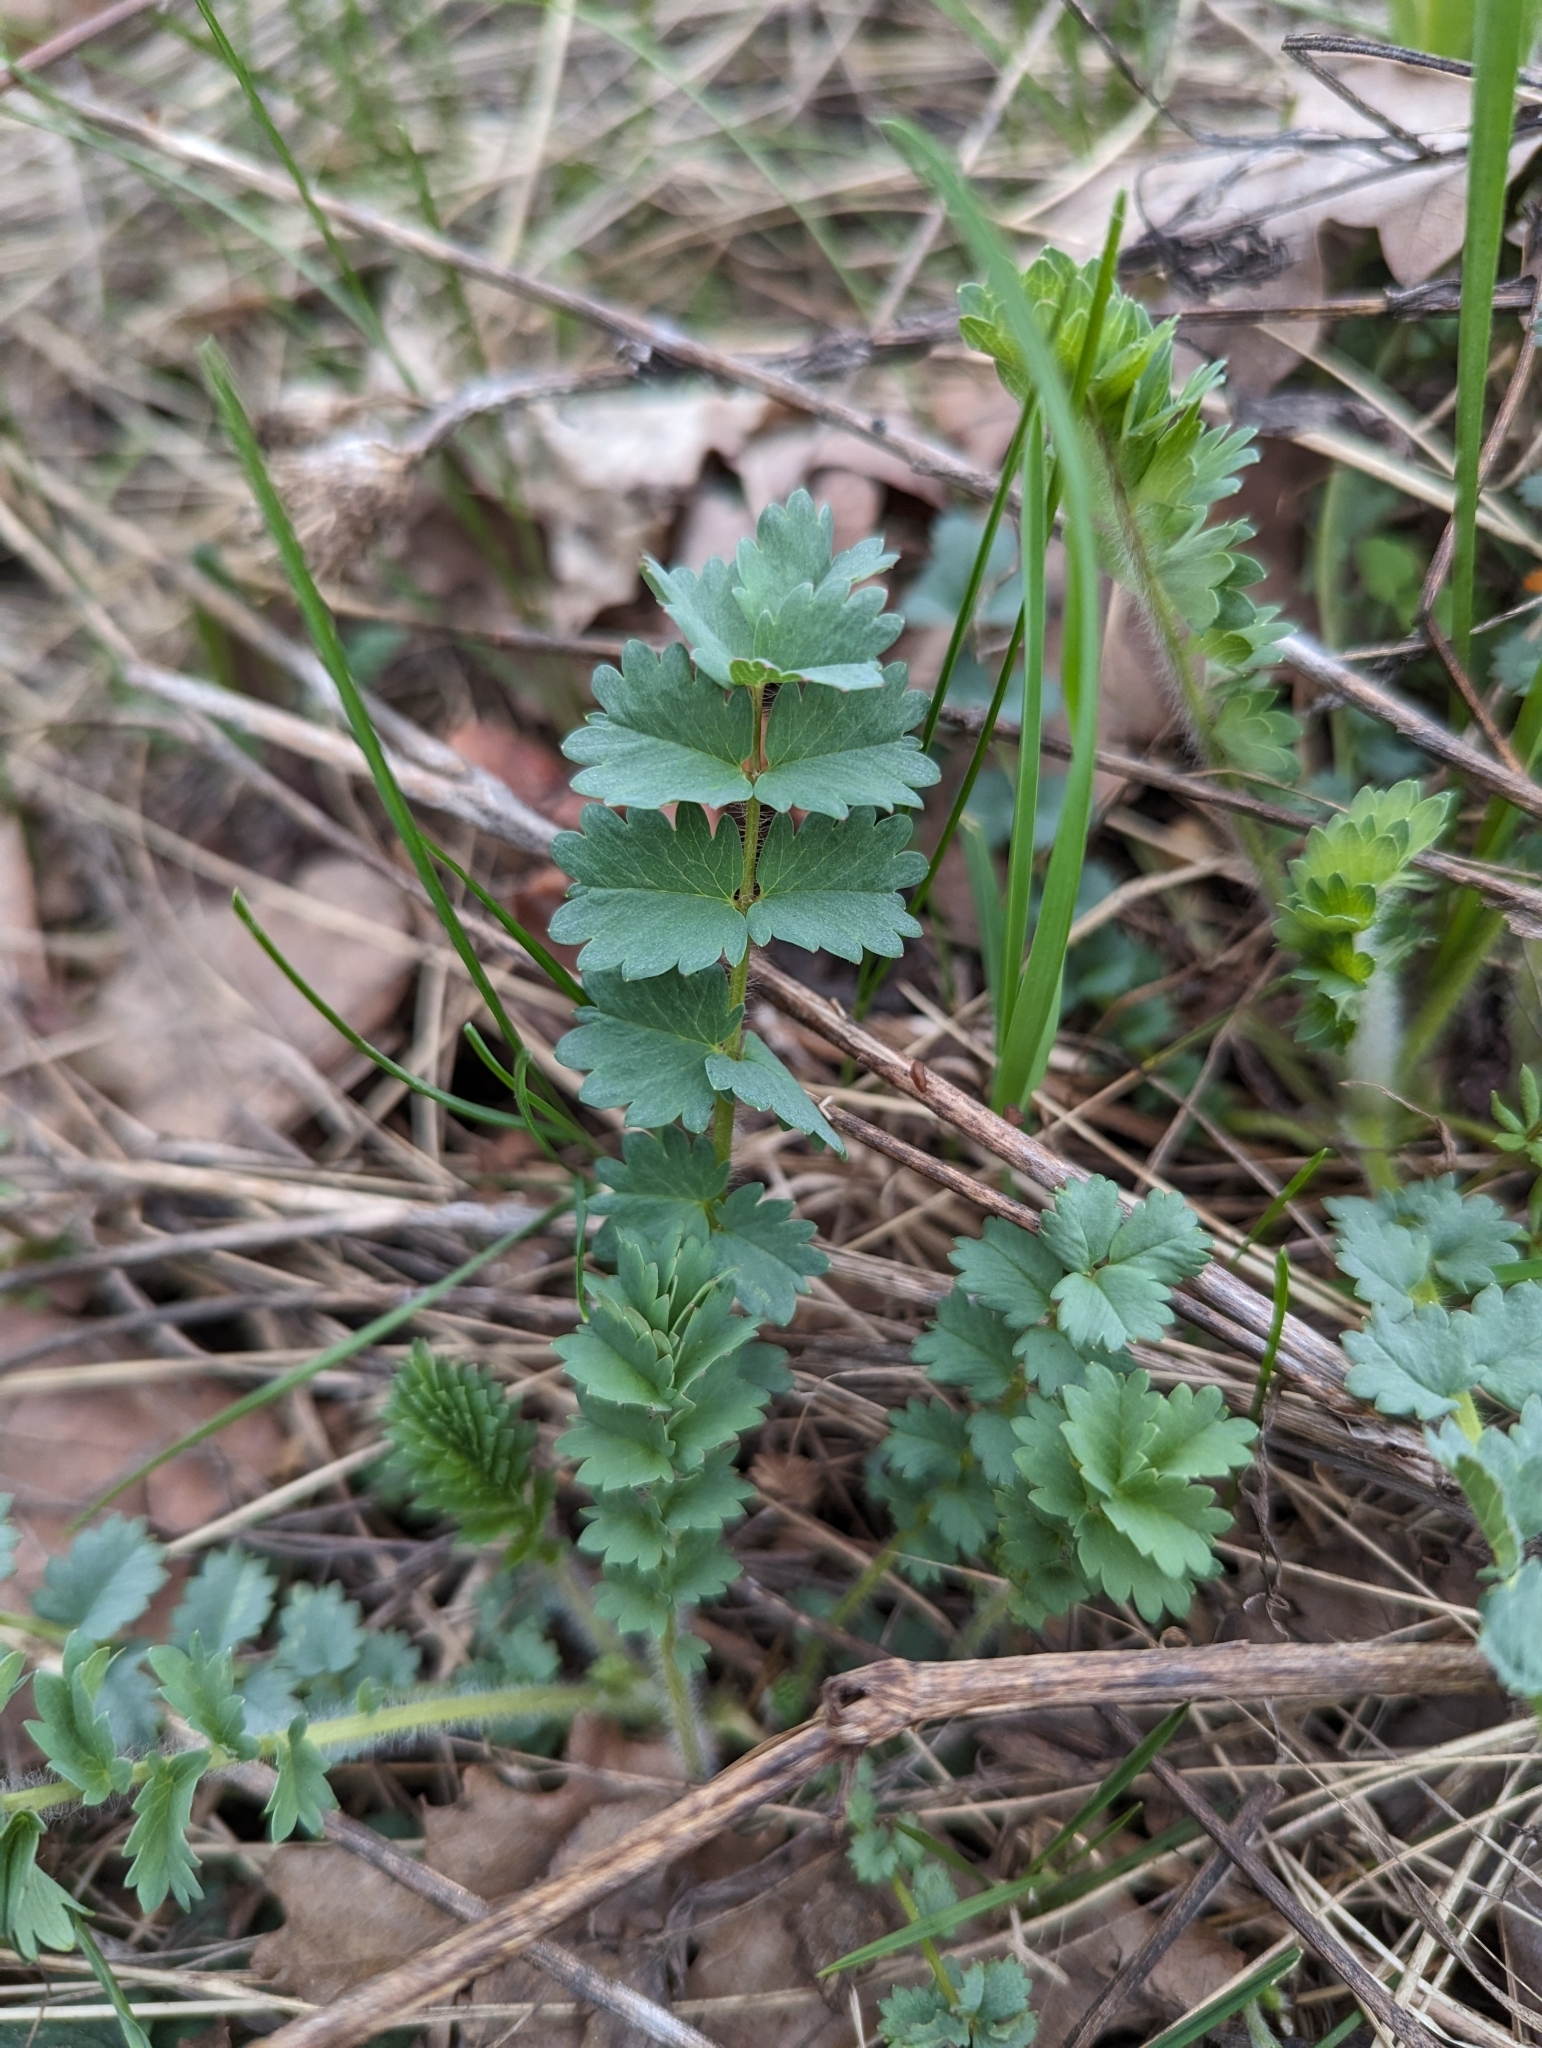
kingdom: Plantae
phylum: Tracheophyta
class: Magnoliopsida
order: Rosales
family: Rosaceae
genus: Poterium
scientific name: Poterium sanguisorba
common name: Salad burnet
